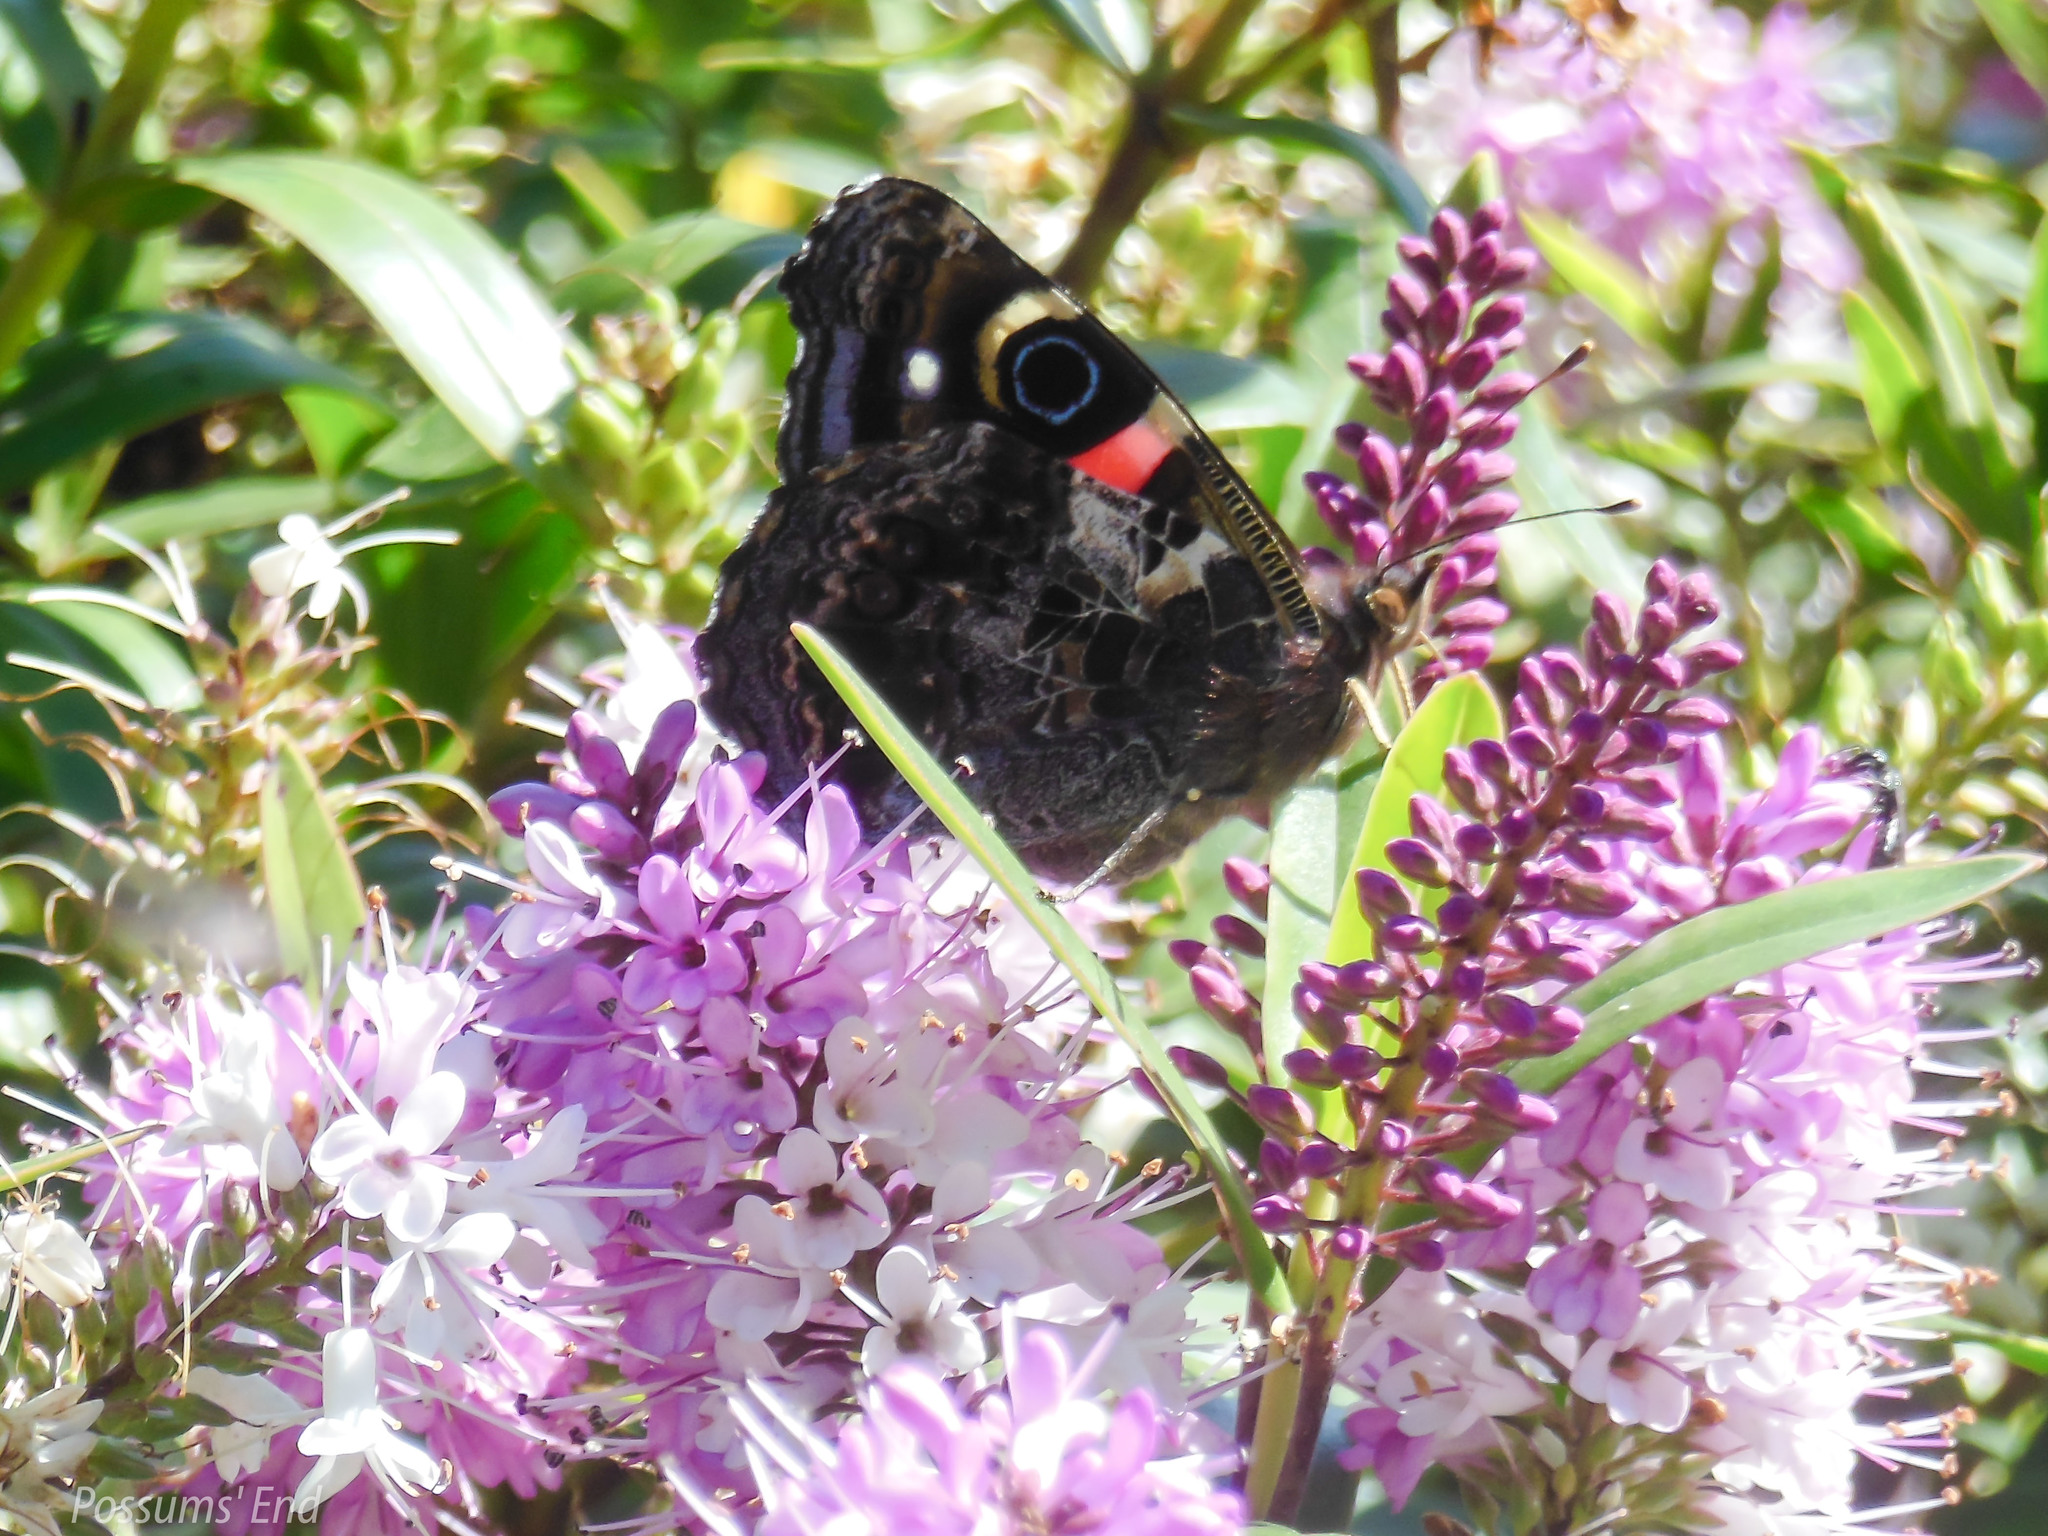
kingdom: Animalia
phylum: Arthropoda
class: Insecta
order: Lepidoptera
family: Nymphalidae
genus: Vanessa
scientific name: Vanessa gonerilla
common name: New zealand red admiral
